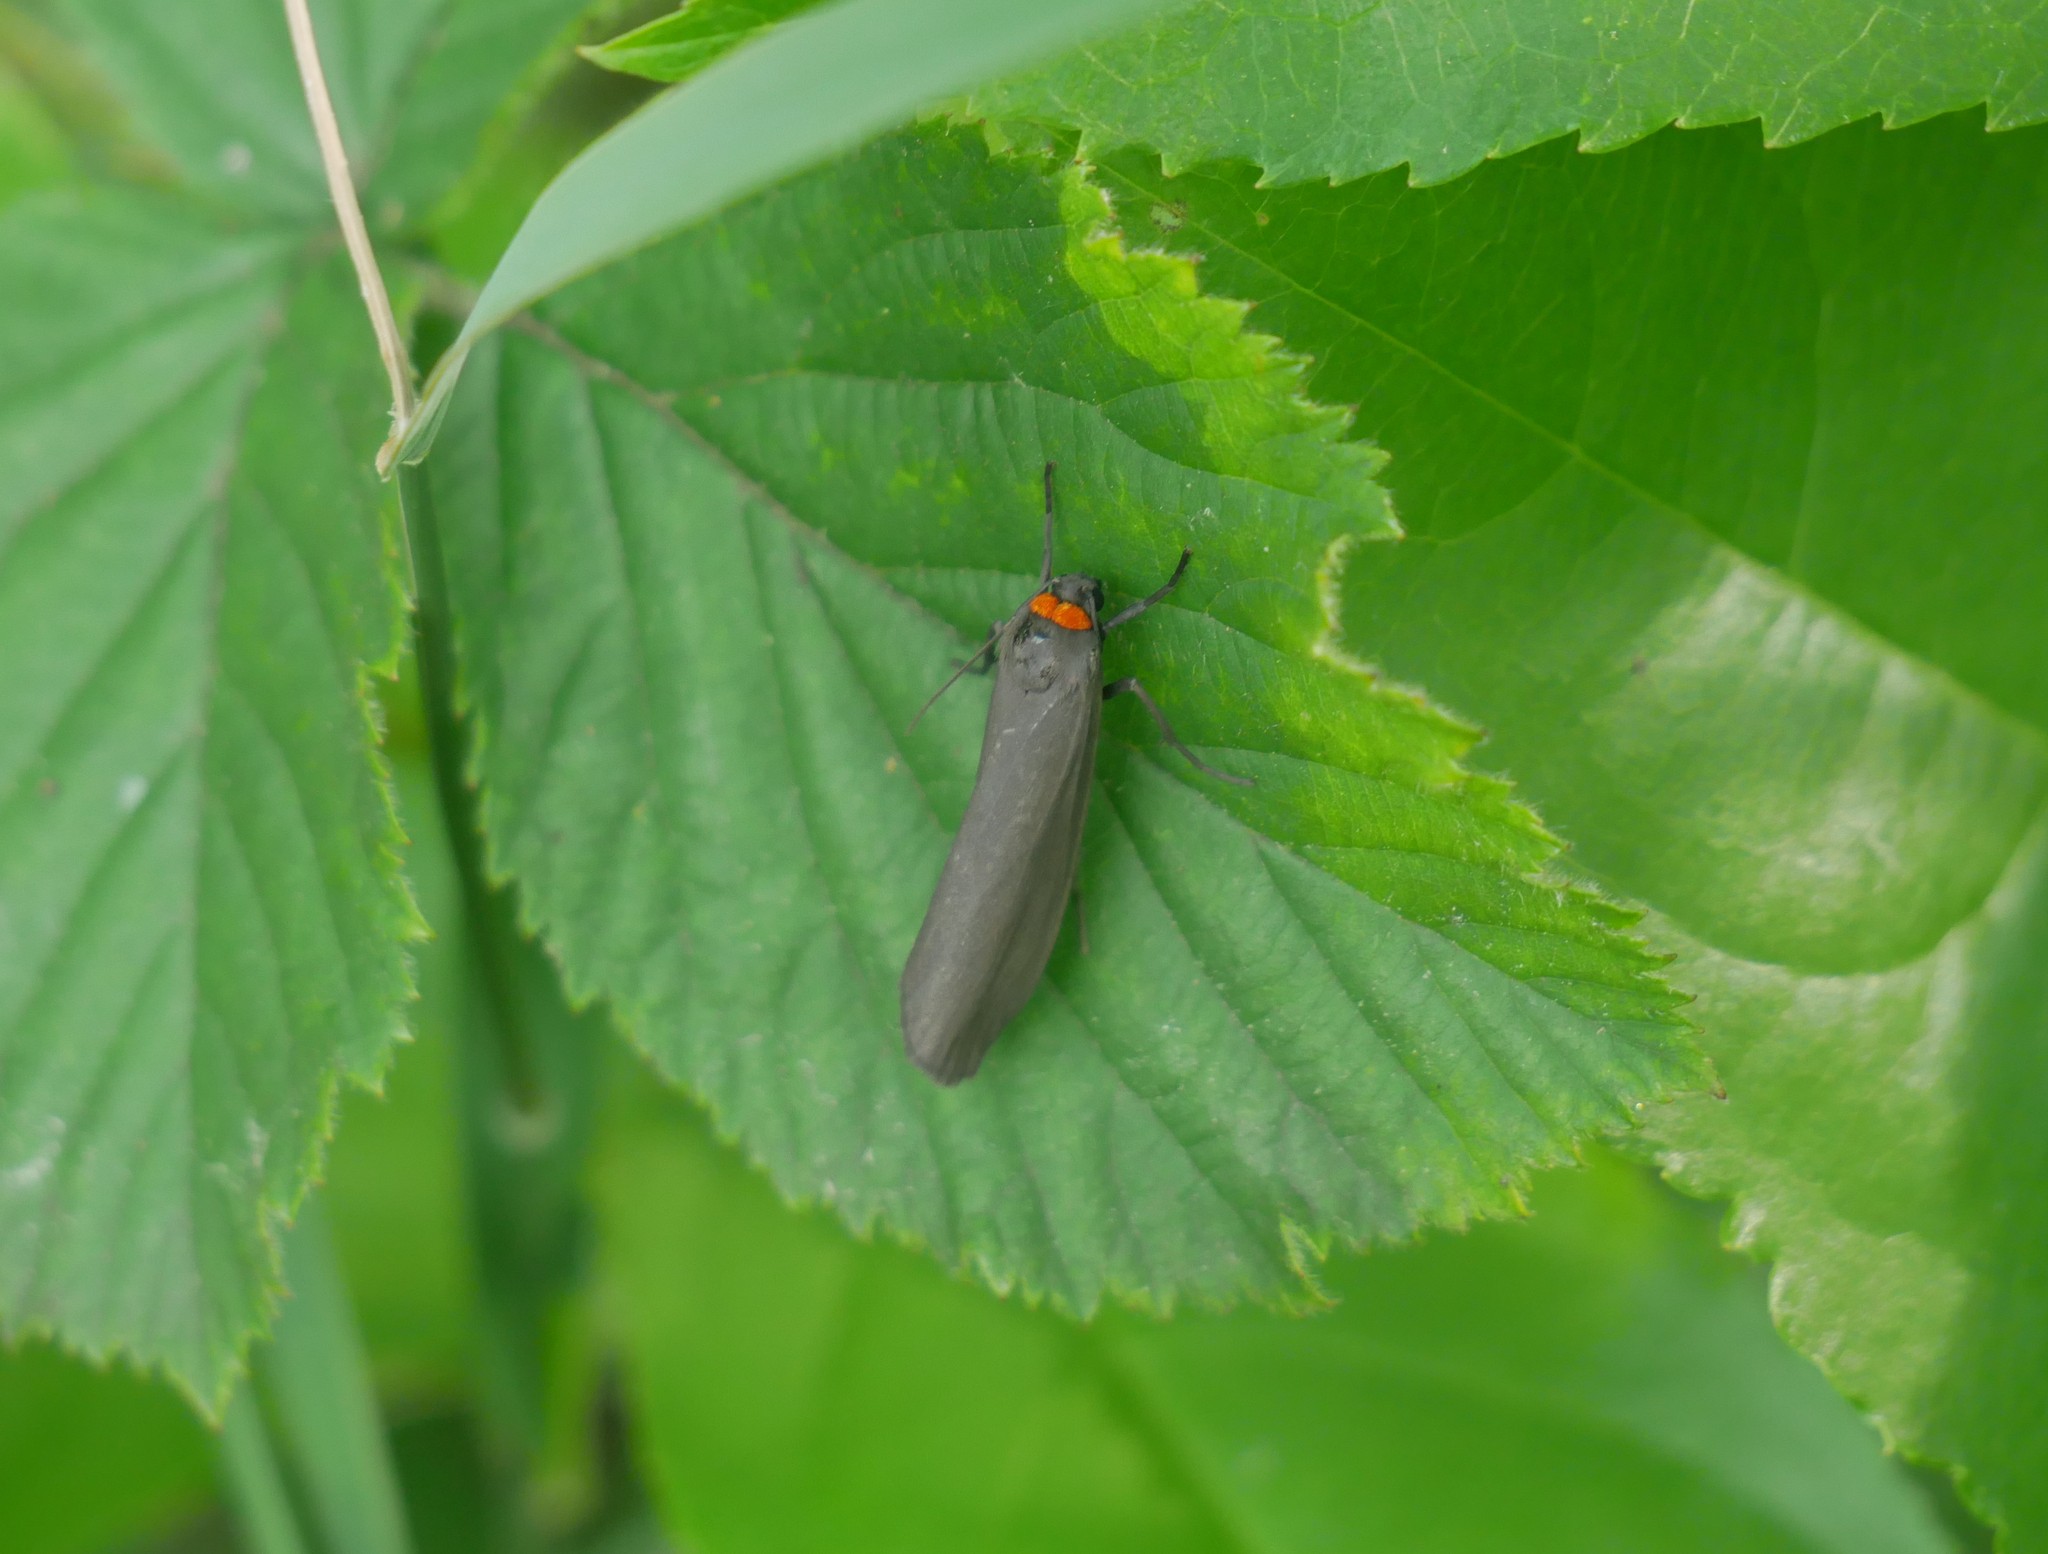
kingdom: Animalia
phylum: Arthropoda
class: Insecta
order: Lepidoptera
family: Erebidae
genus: Atolmis
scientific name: Atolmis rubricollis
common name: Red-necked footman
